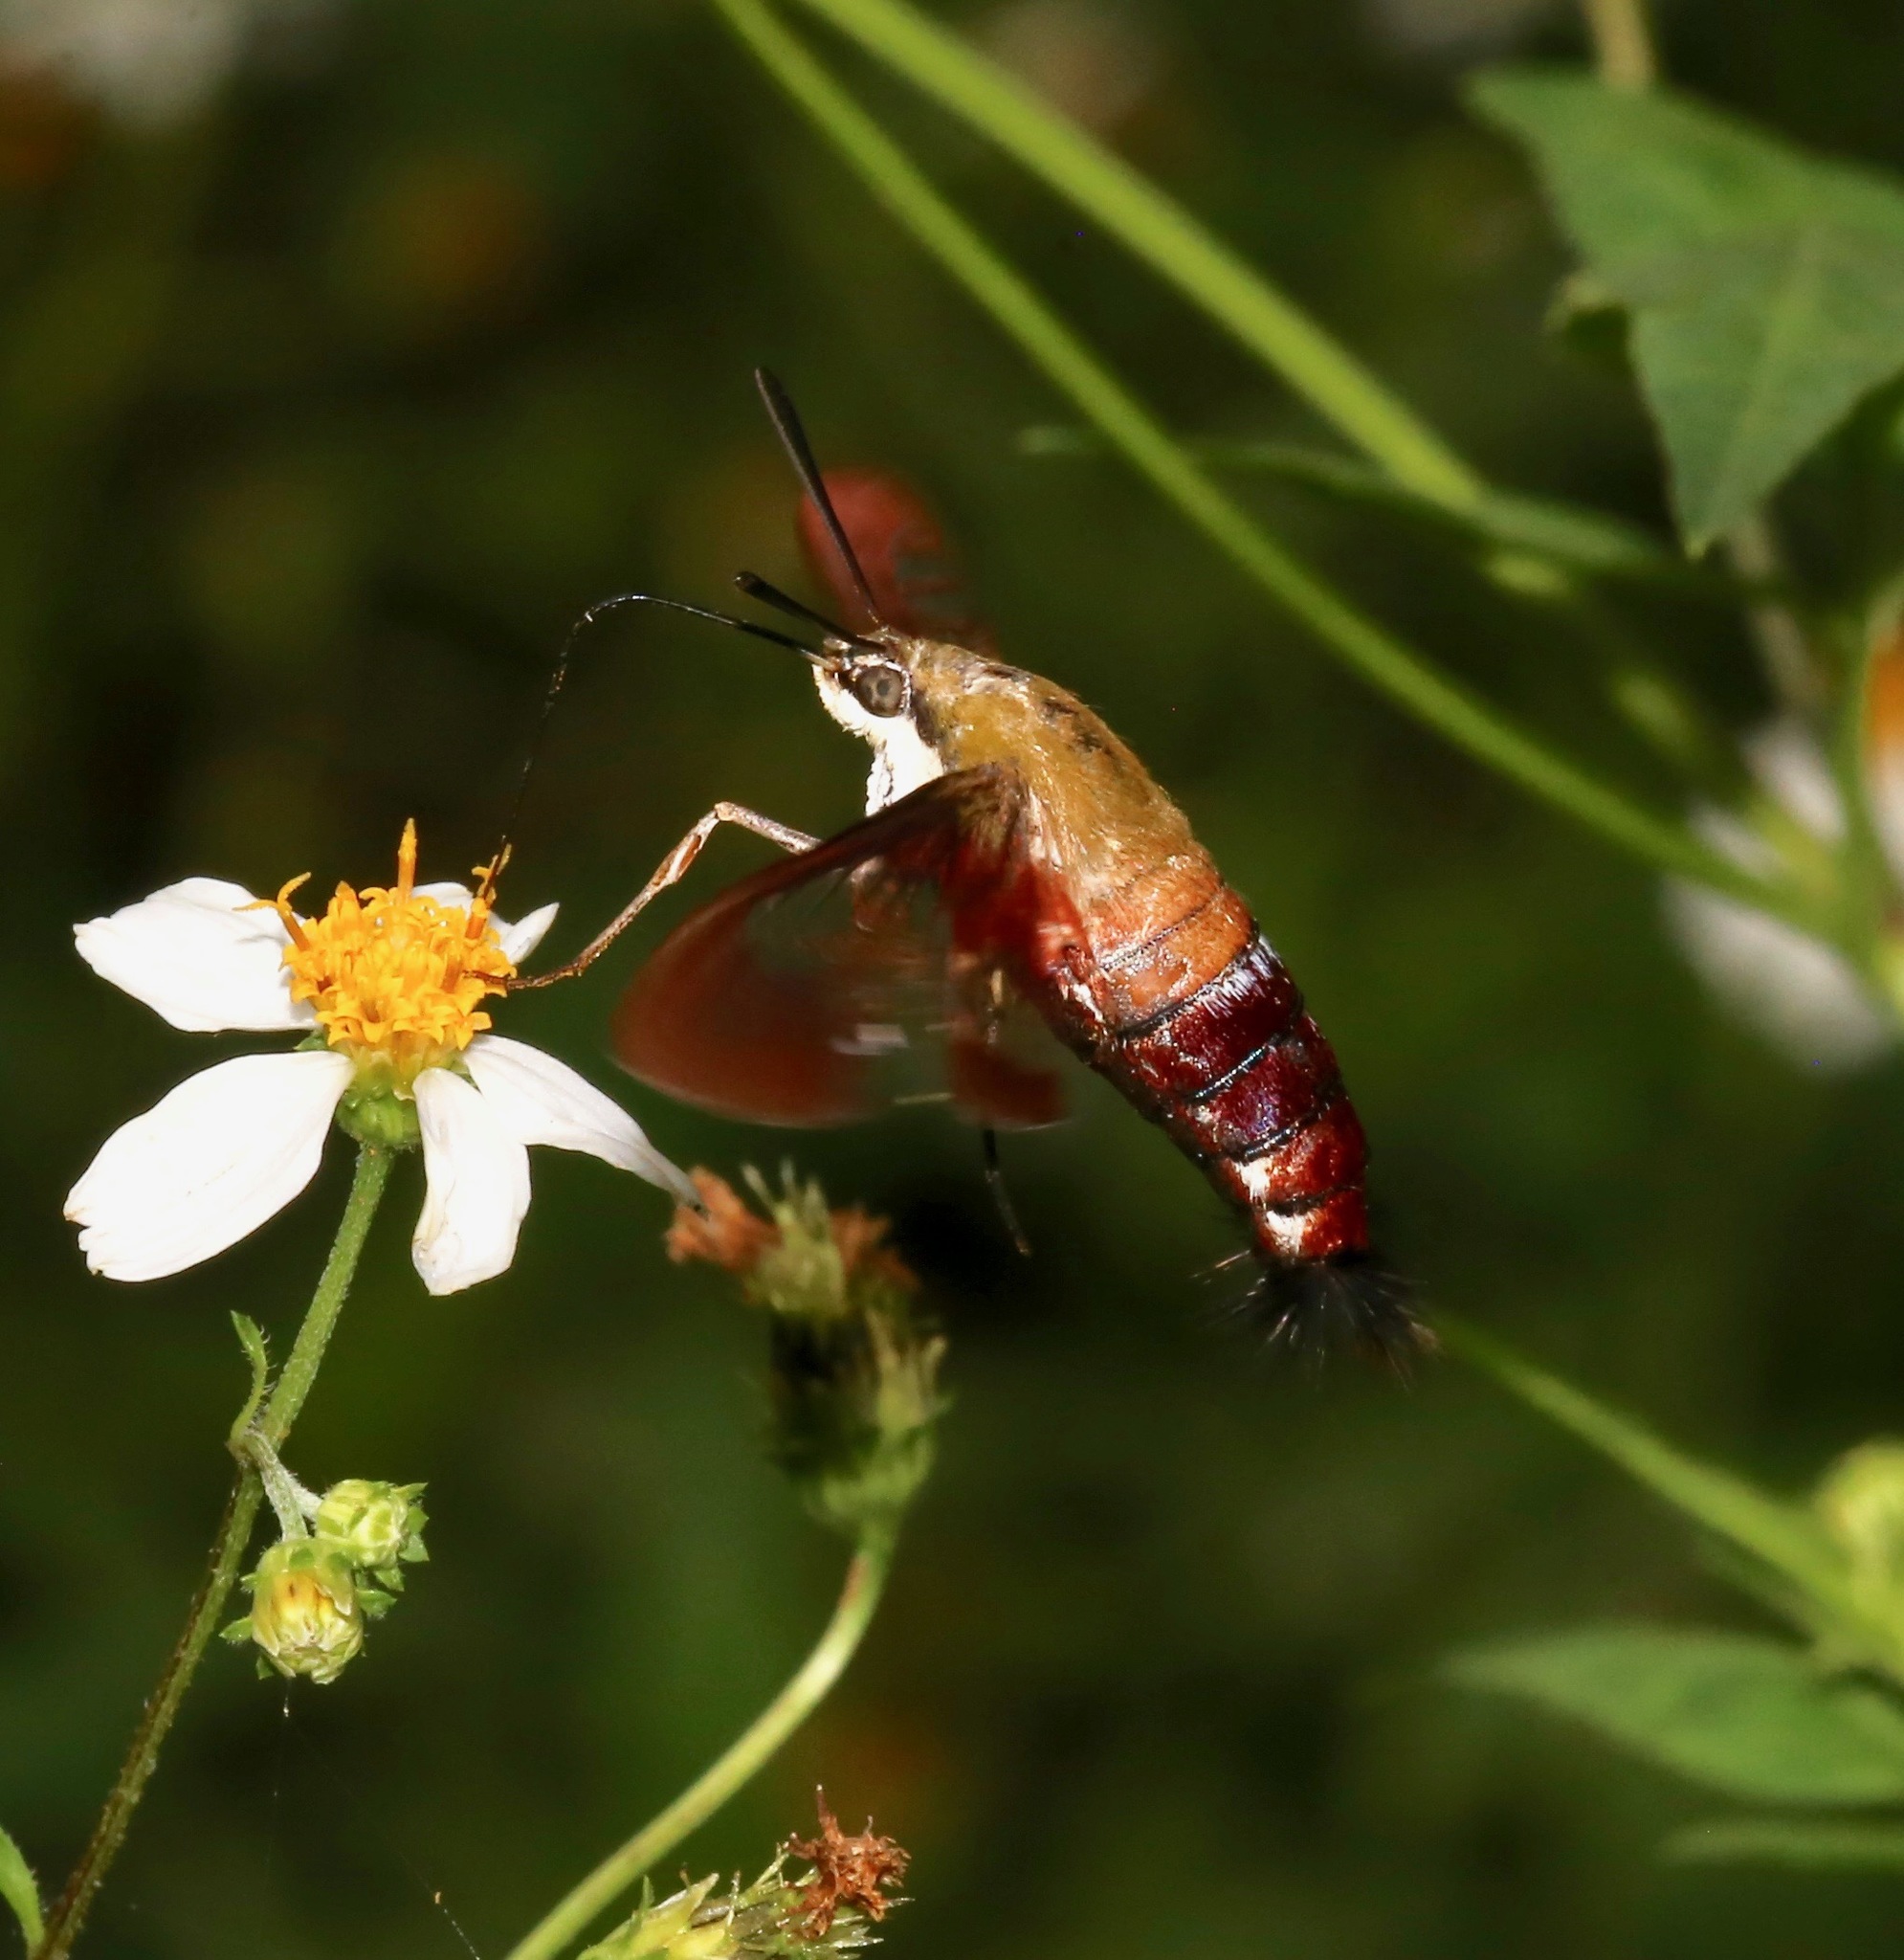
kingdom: Animalia
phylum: Arthropoda
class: Insecta
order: Lepidoptera
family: Sphingidae
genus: Hemaris
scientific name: Hemaris thysbe
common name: Common clear-wing
